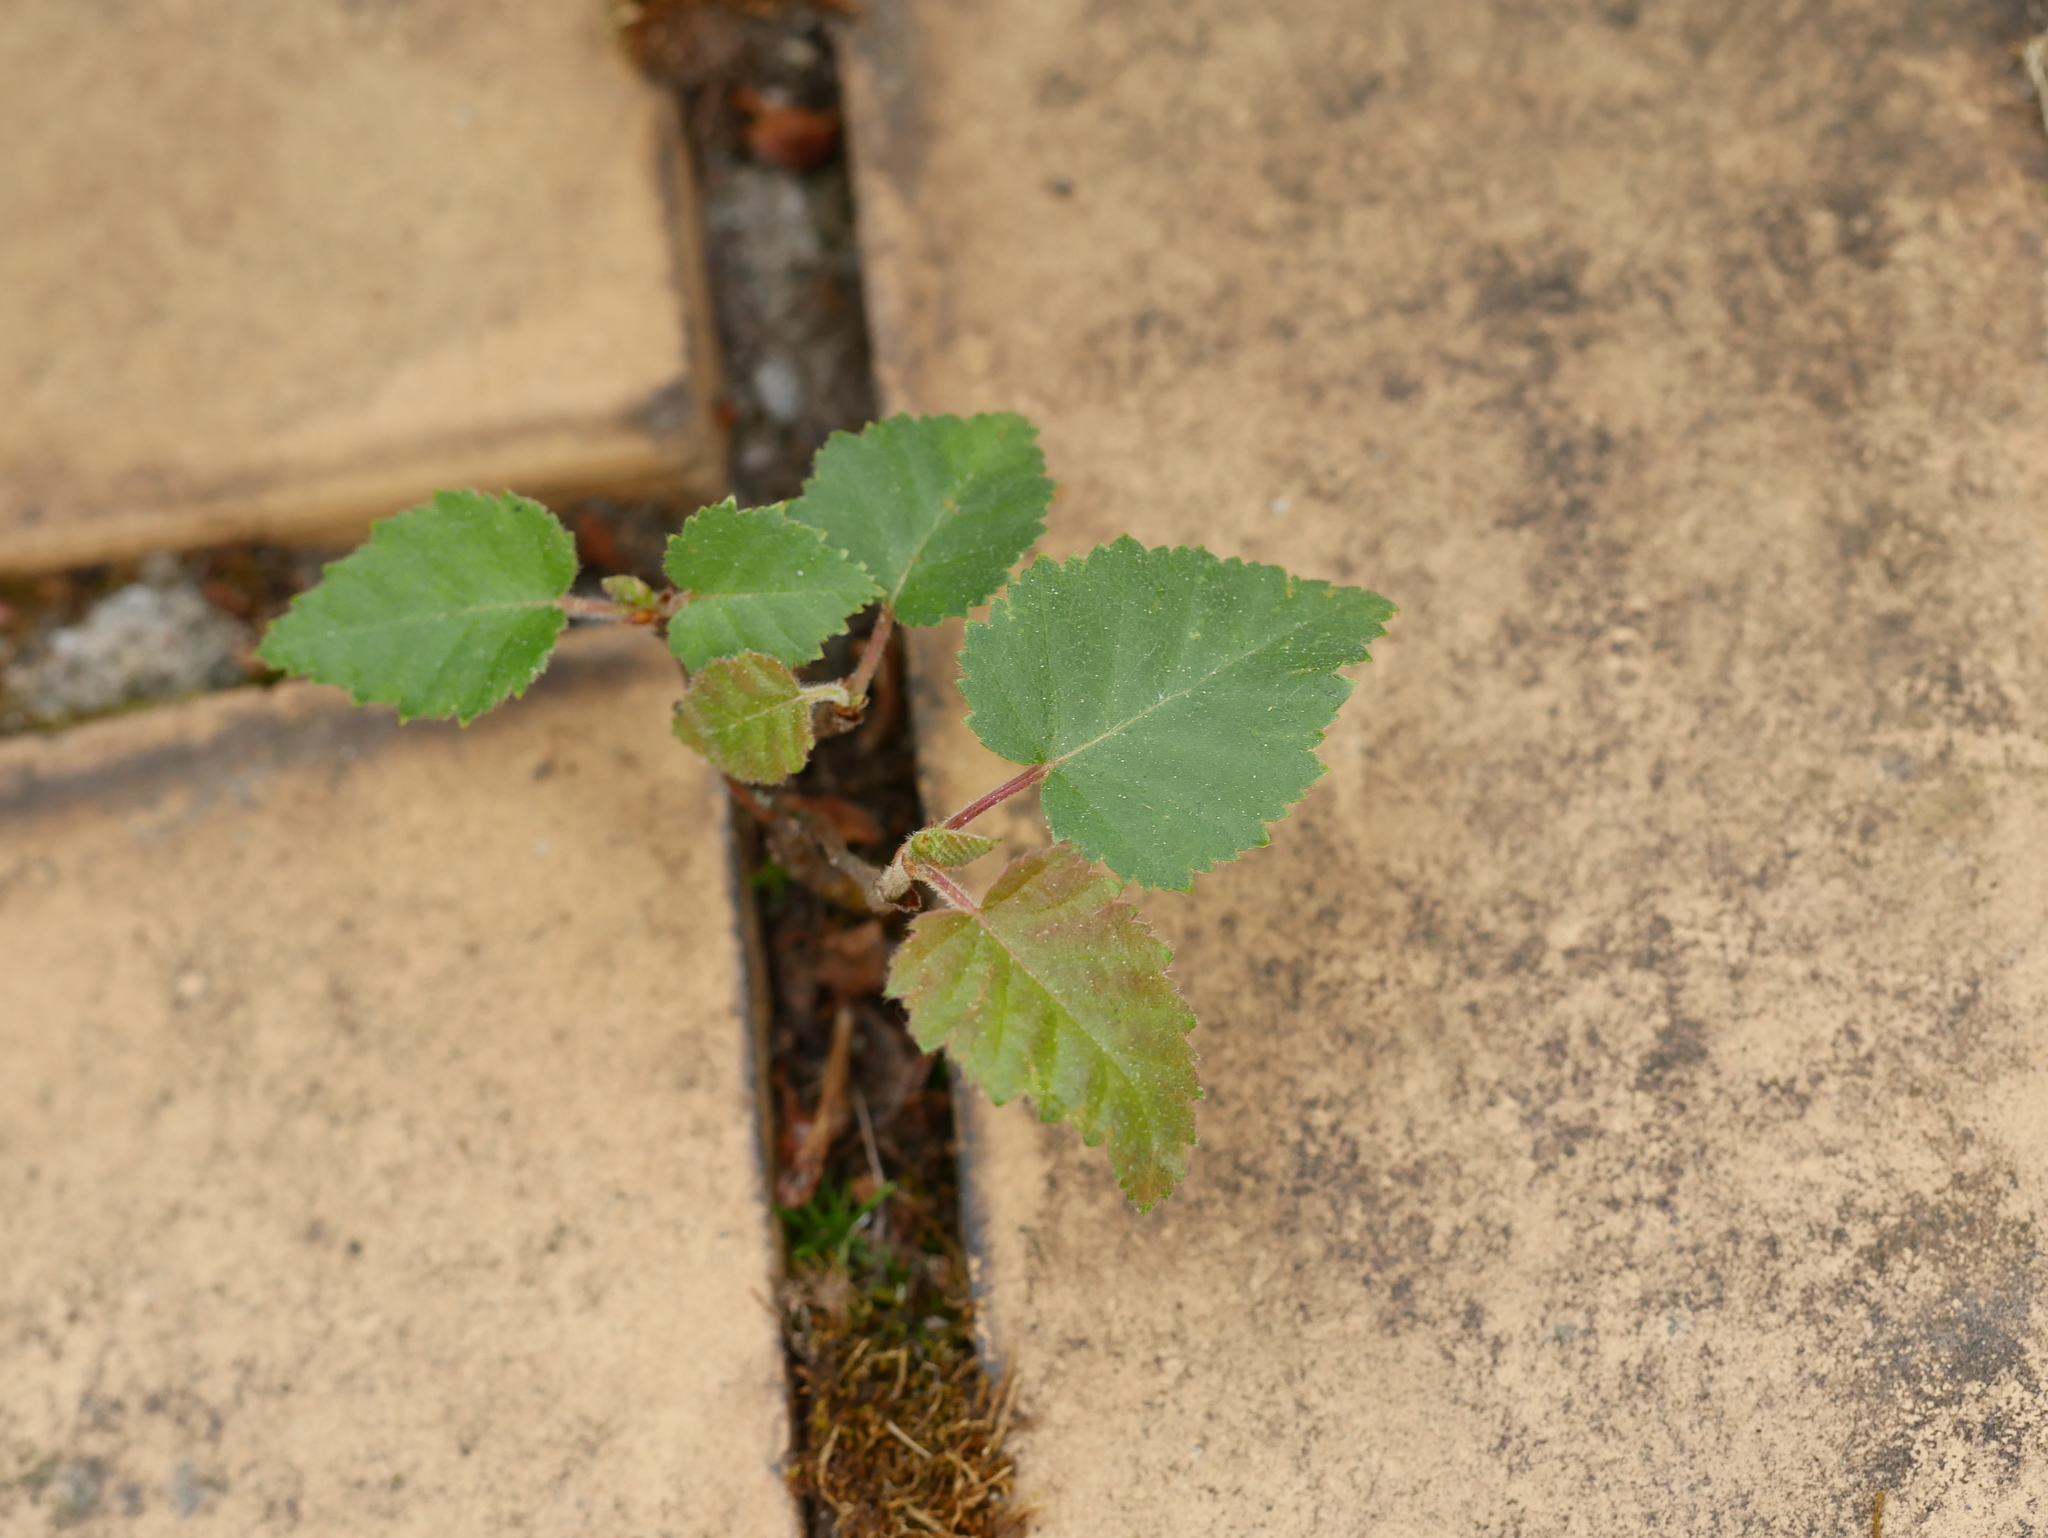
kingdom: Plantae
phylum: Tracheophyta
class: Magnoliopsida
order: Fagales
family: Betulaceae
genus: Betula
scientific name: Betula pendula
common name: Silver birch
